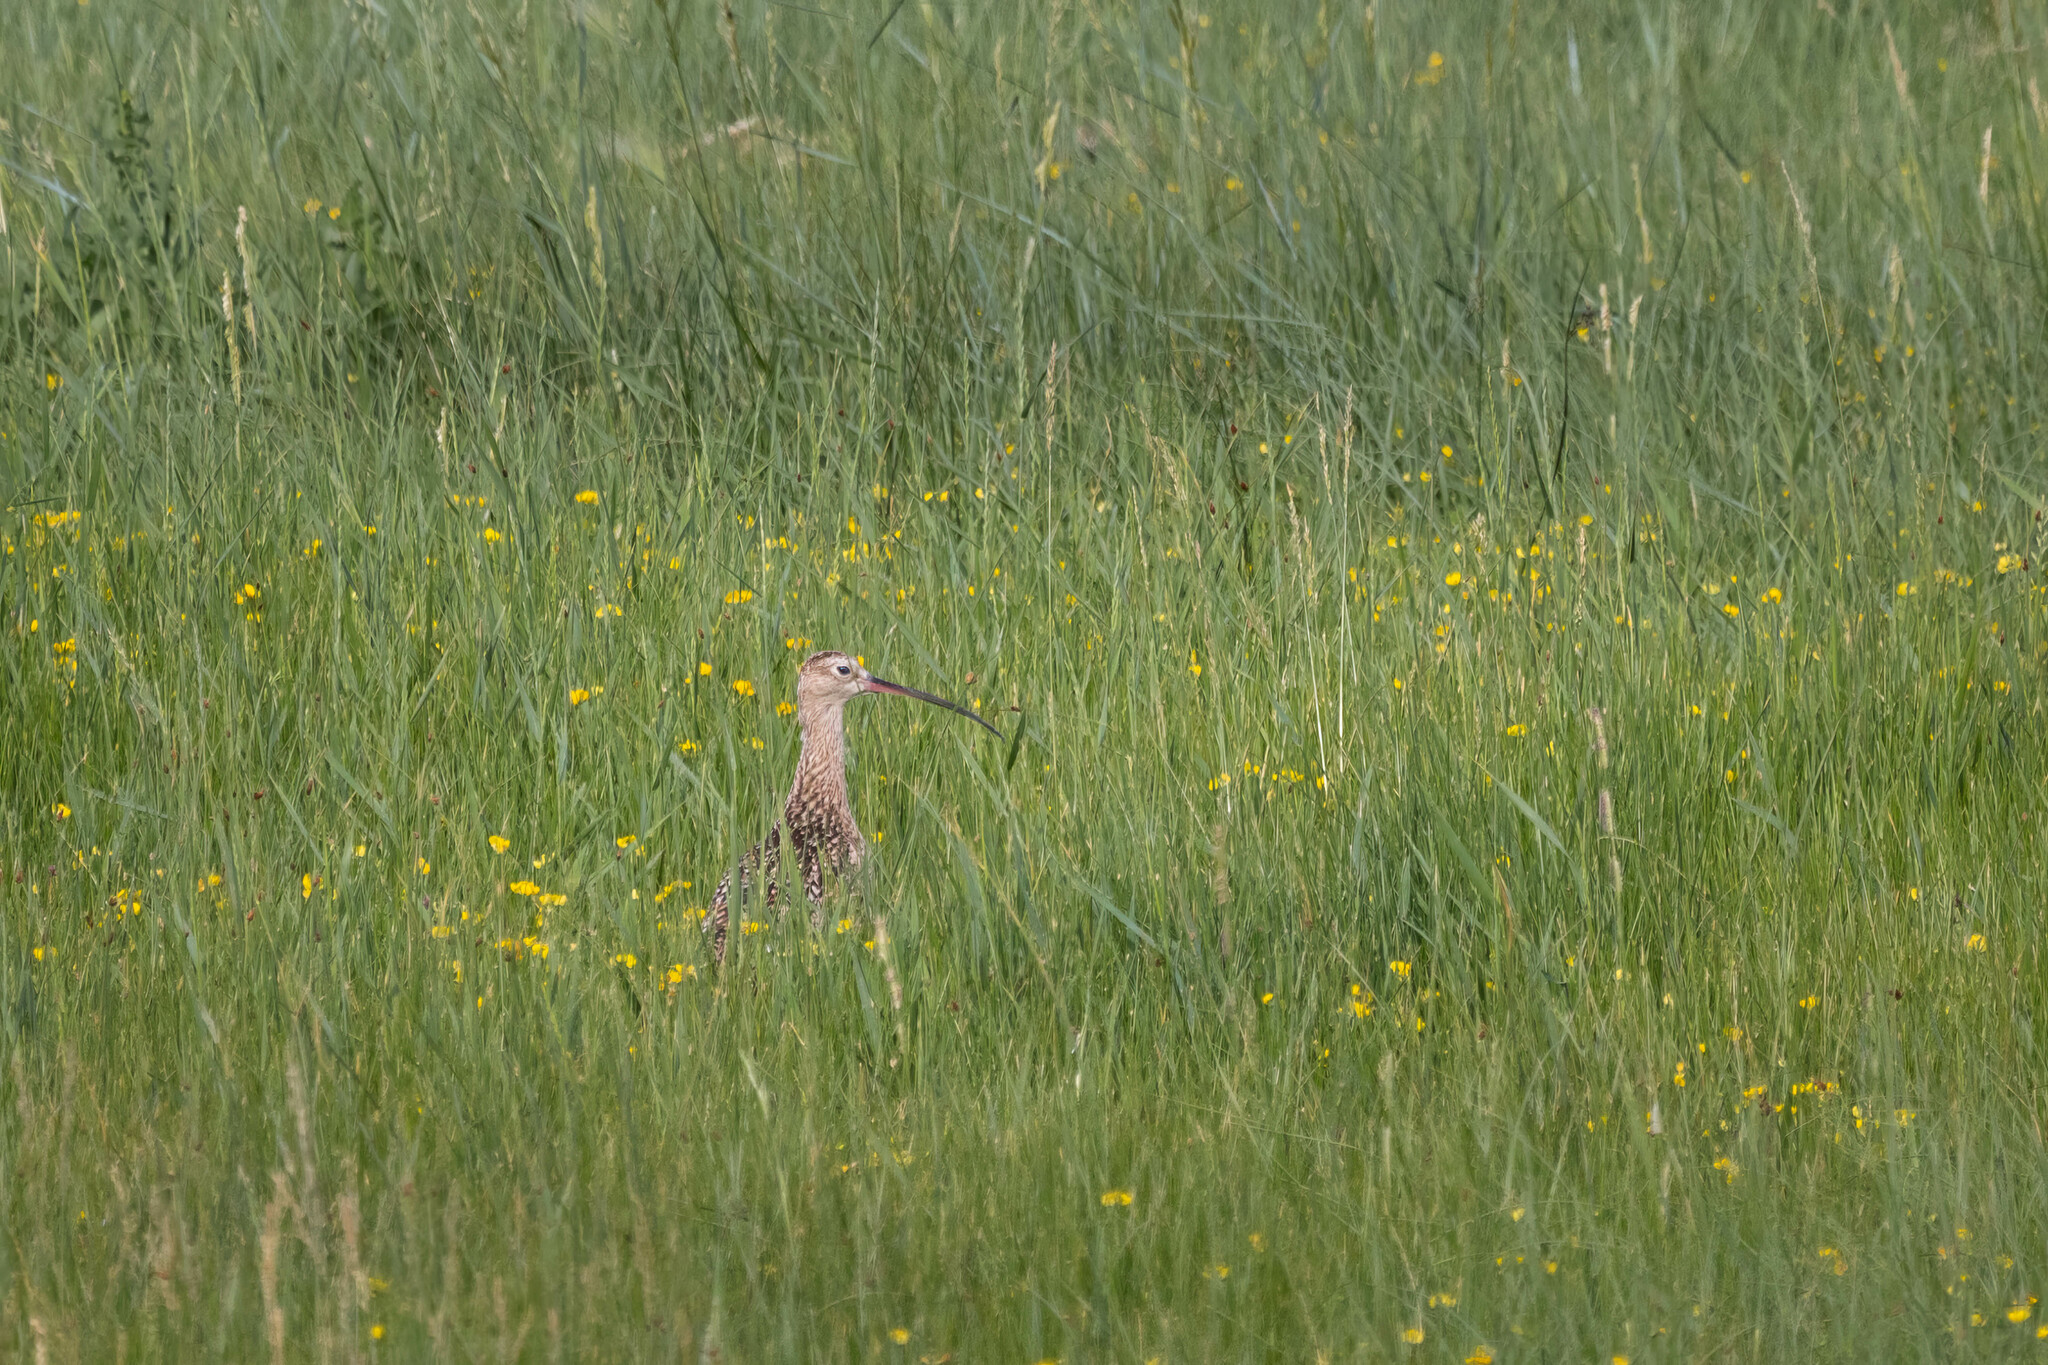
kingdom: Animalia
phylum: Chordata
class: Aves
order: Charadriiformes
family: Scolopacidae
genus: Numenius
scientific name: Numenius americanus
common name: Long-billed curlew
